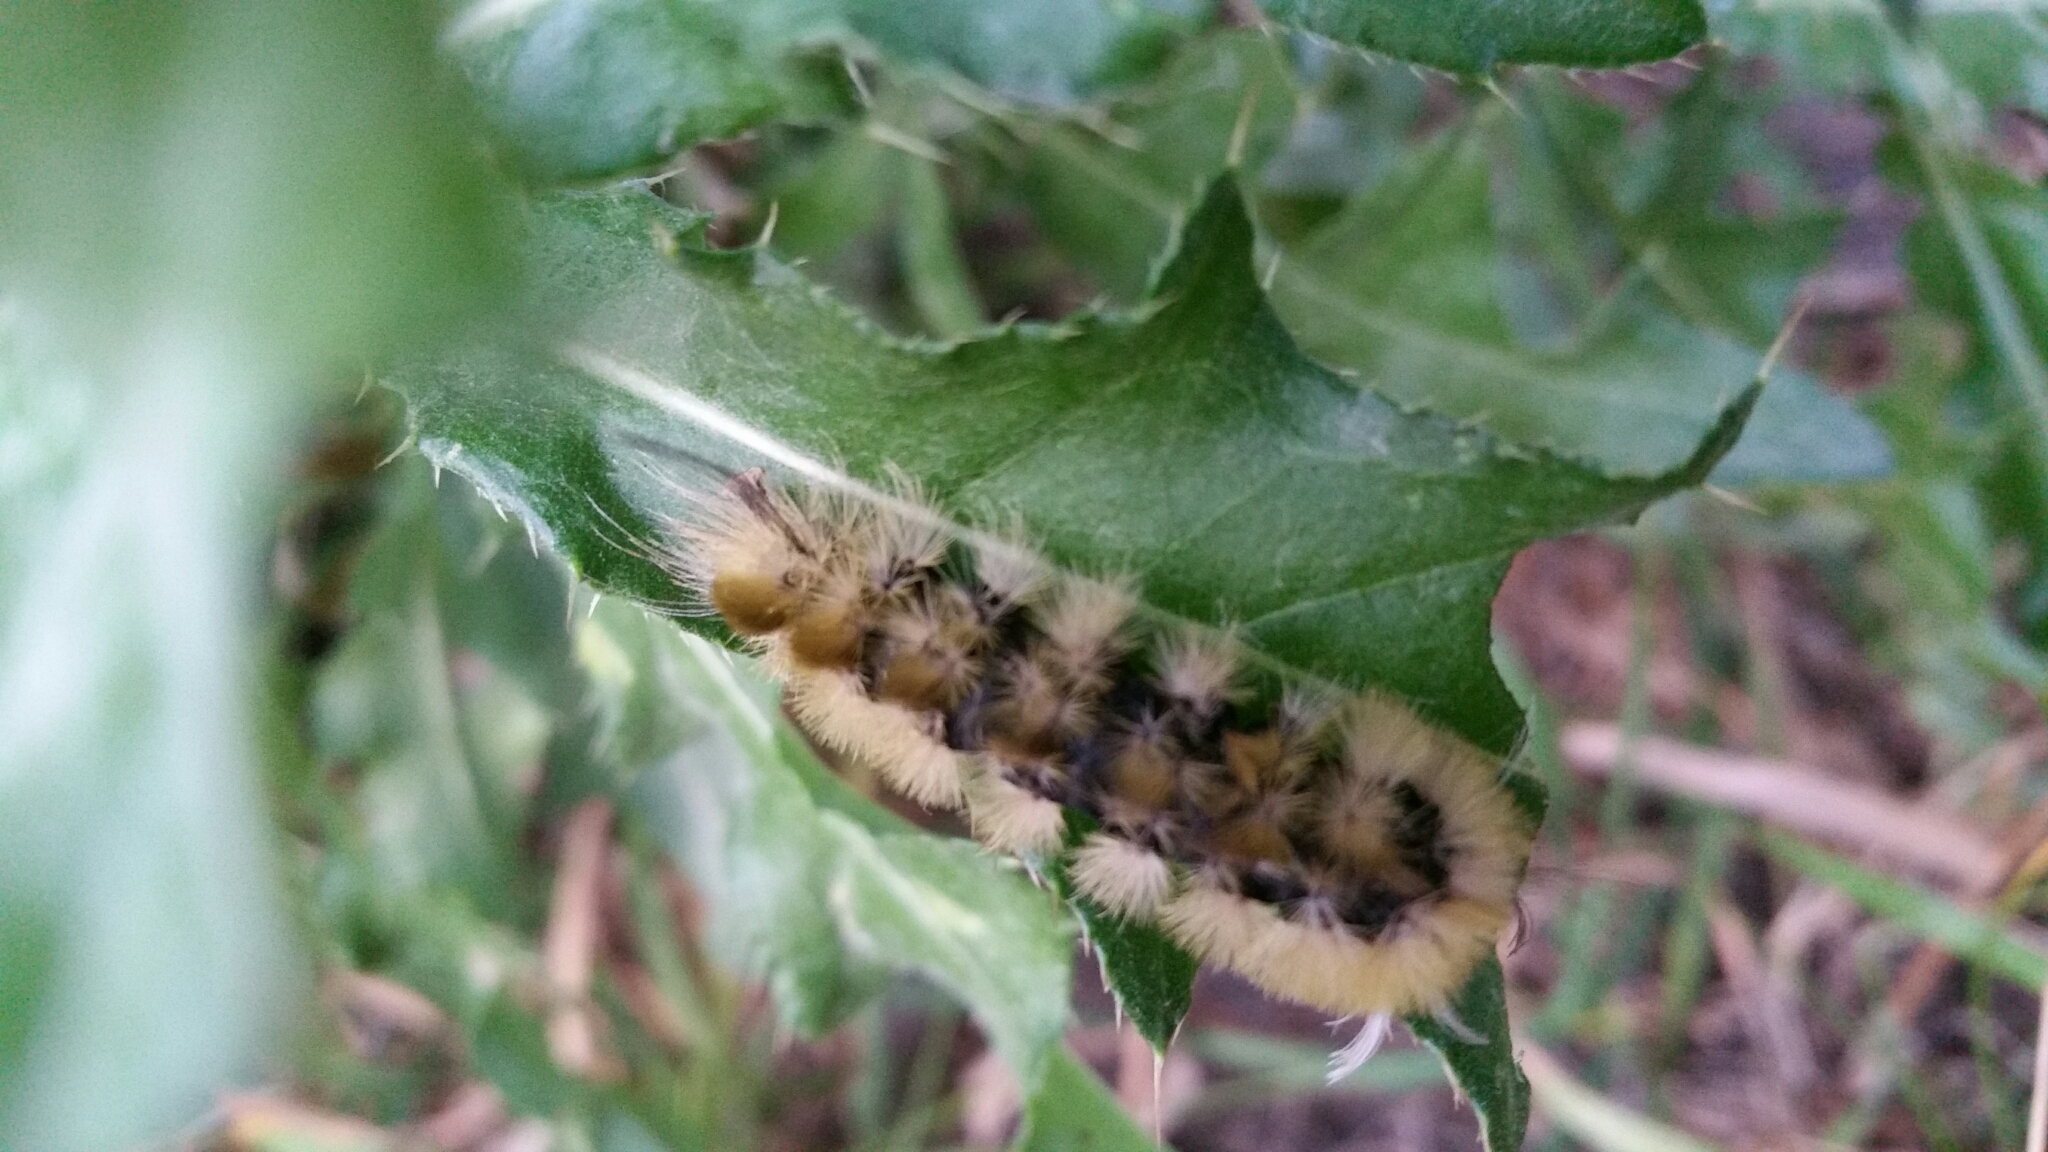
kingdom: Animalia
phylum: Arthropoda
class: Insecta
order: Lepidoptera
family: Erebidae
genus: Halysidota
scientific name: Halysidota tessellaris
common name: Banded tussock moth
